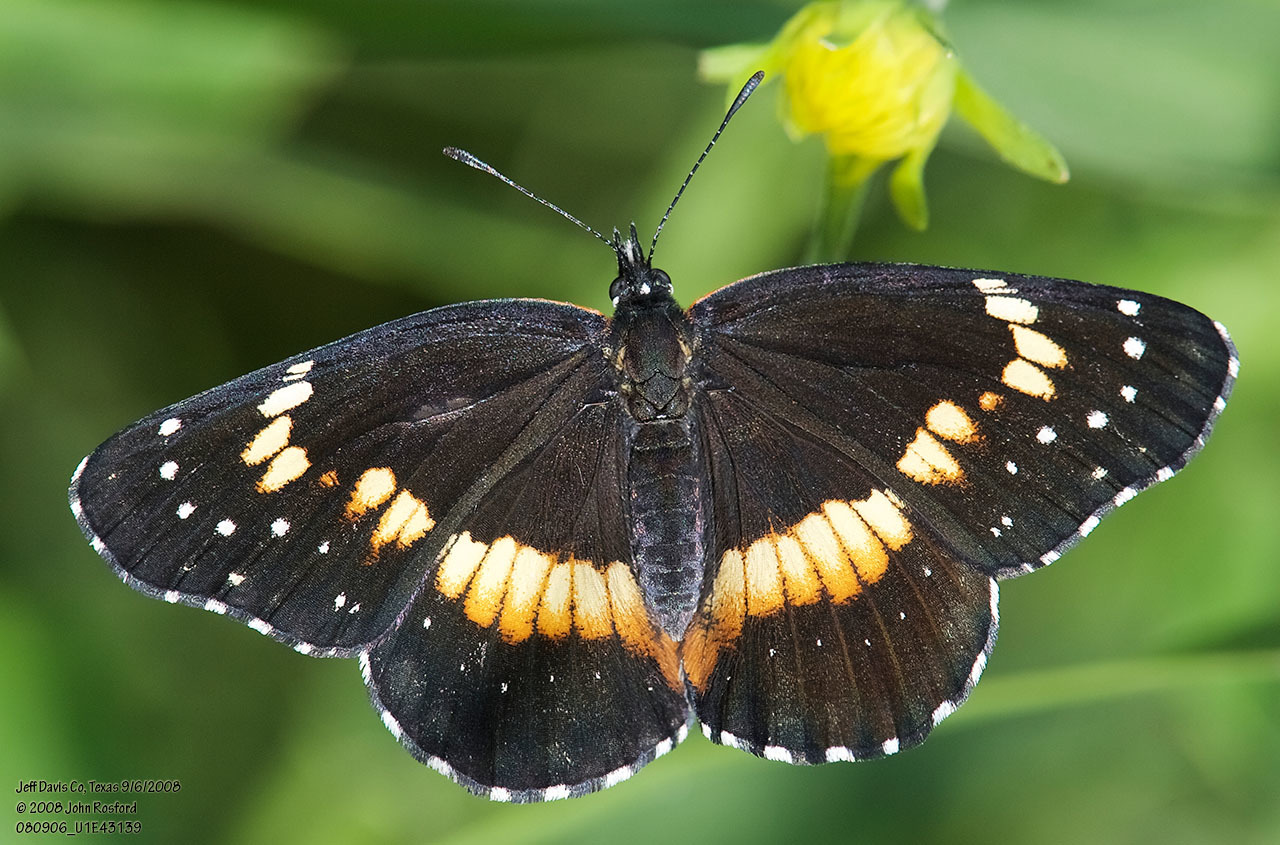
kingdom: Animalia
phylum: Arthropoda
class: Insecta
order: Lepidoptera
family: Nymphalidae
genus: Chlosyne
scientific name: Chlosyne lacinia
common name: Bordered patch
